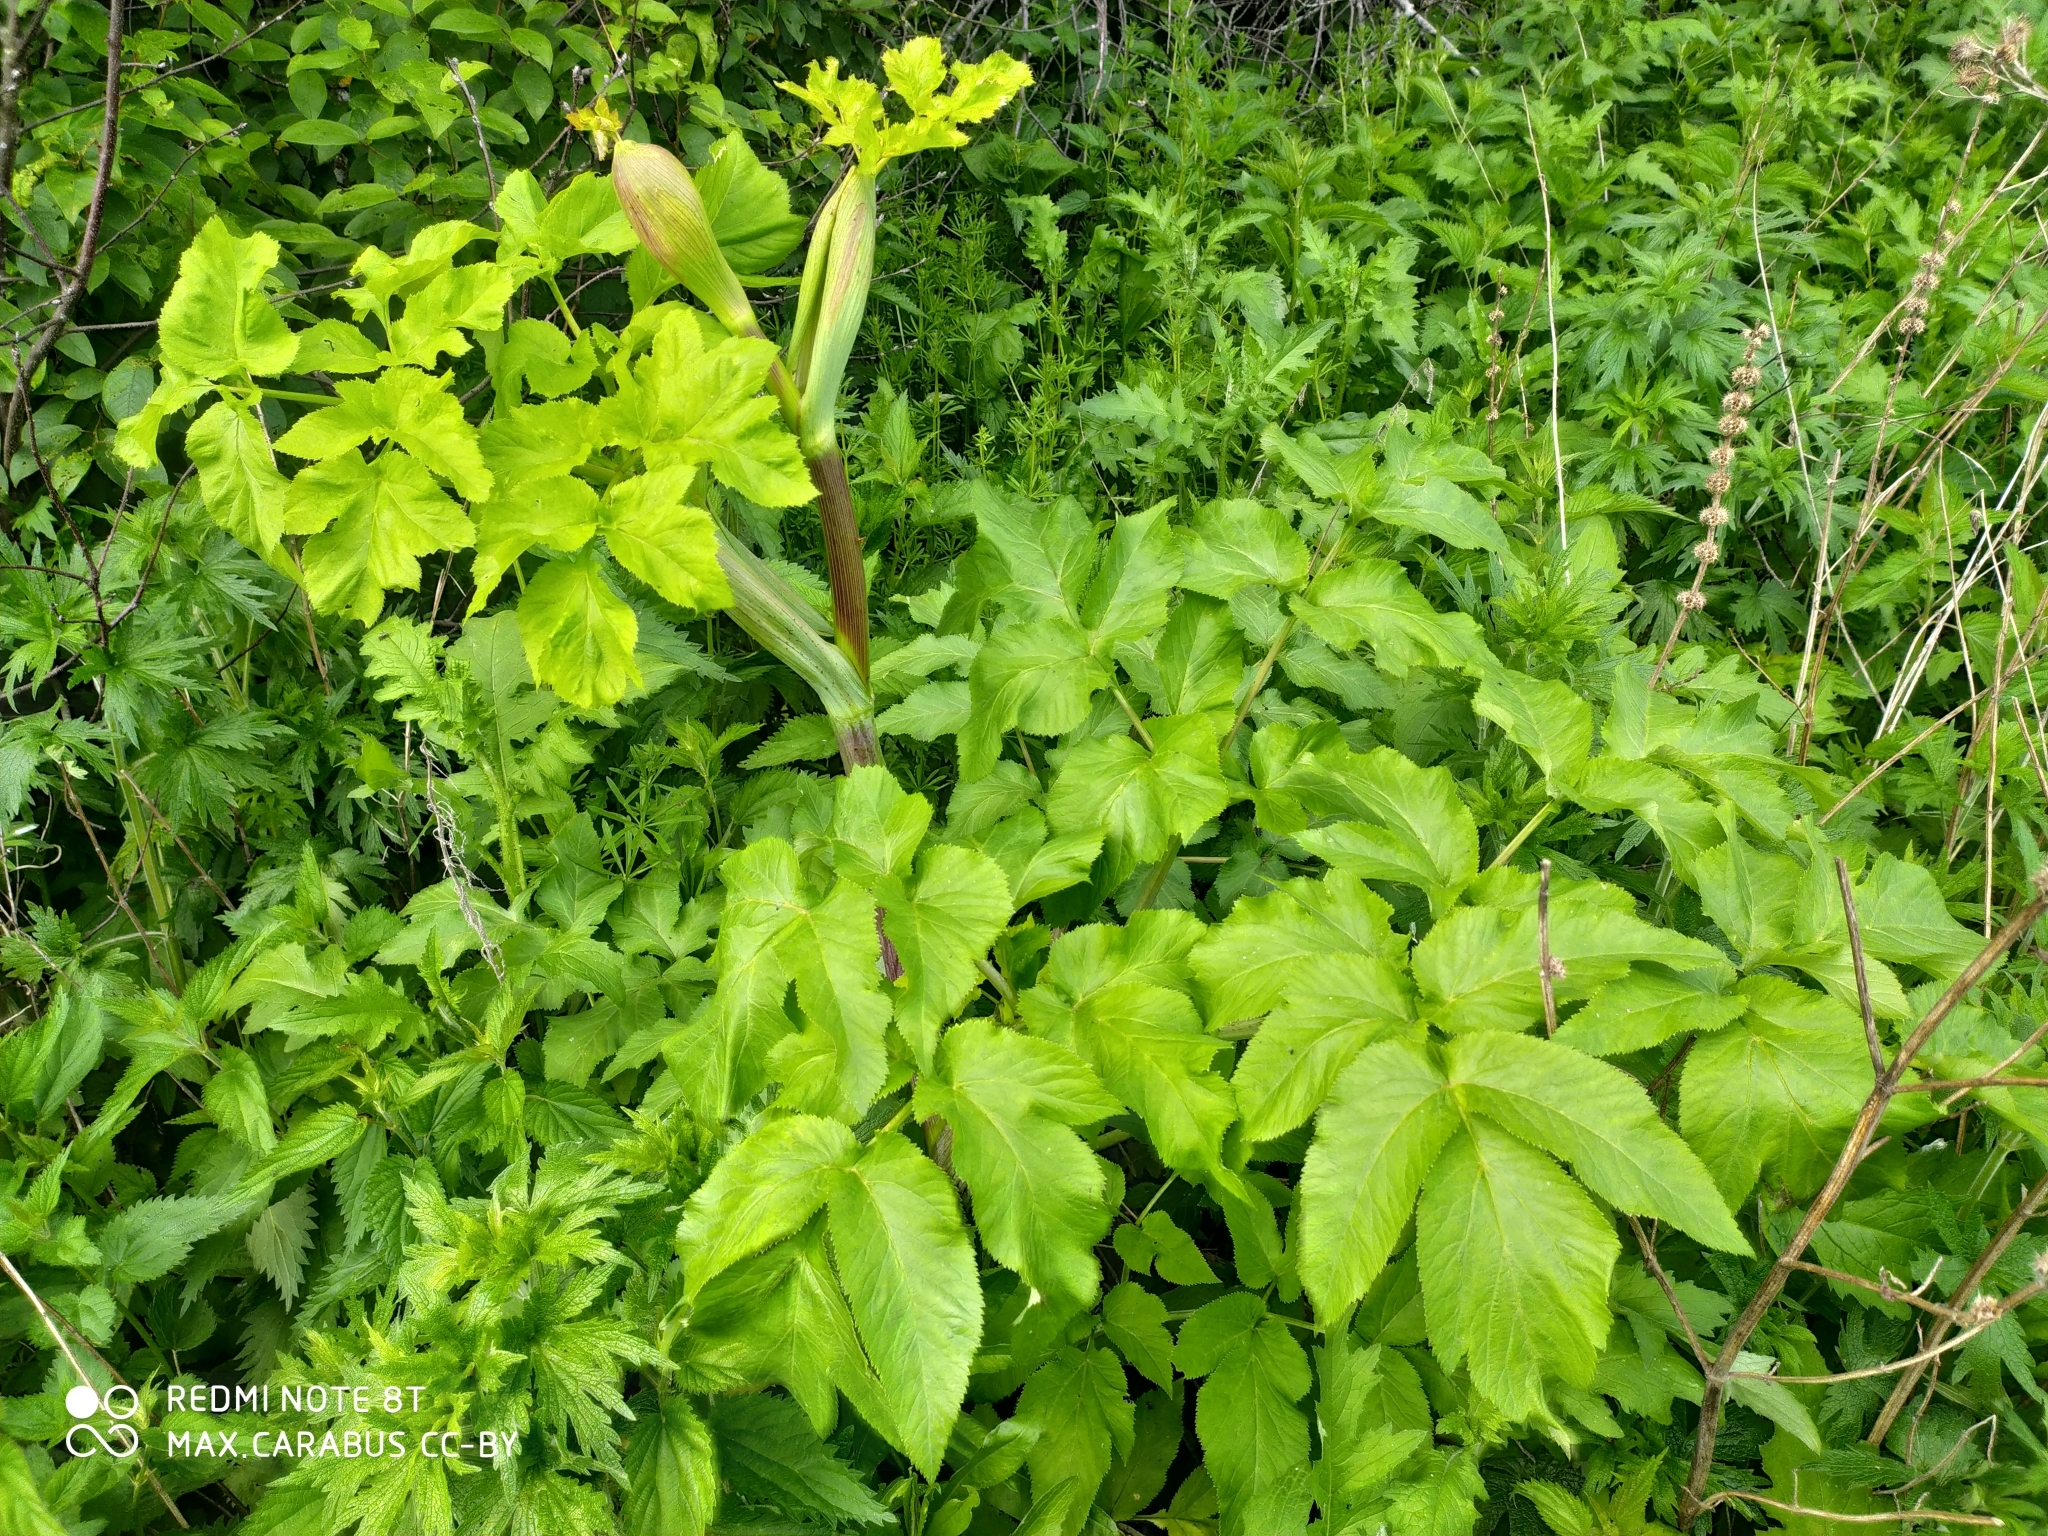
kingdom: Plantae
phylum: Tracheophyta
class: Magnoliopsida
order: Apiales
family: Apiaceae
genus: Angelica
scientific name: Angelica archangelica
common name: Garden angelica
